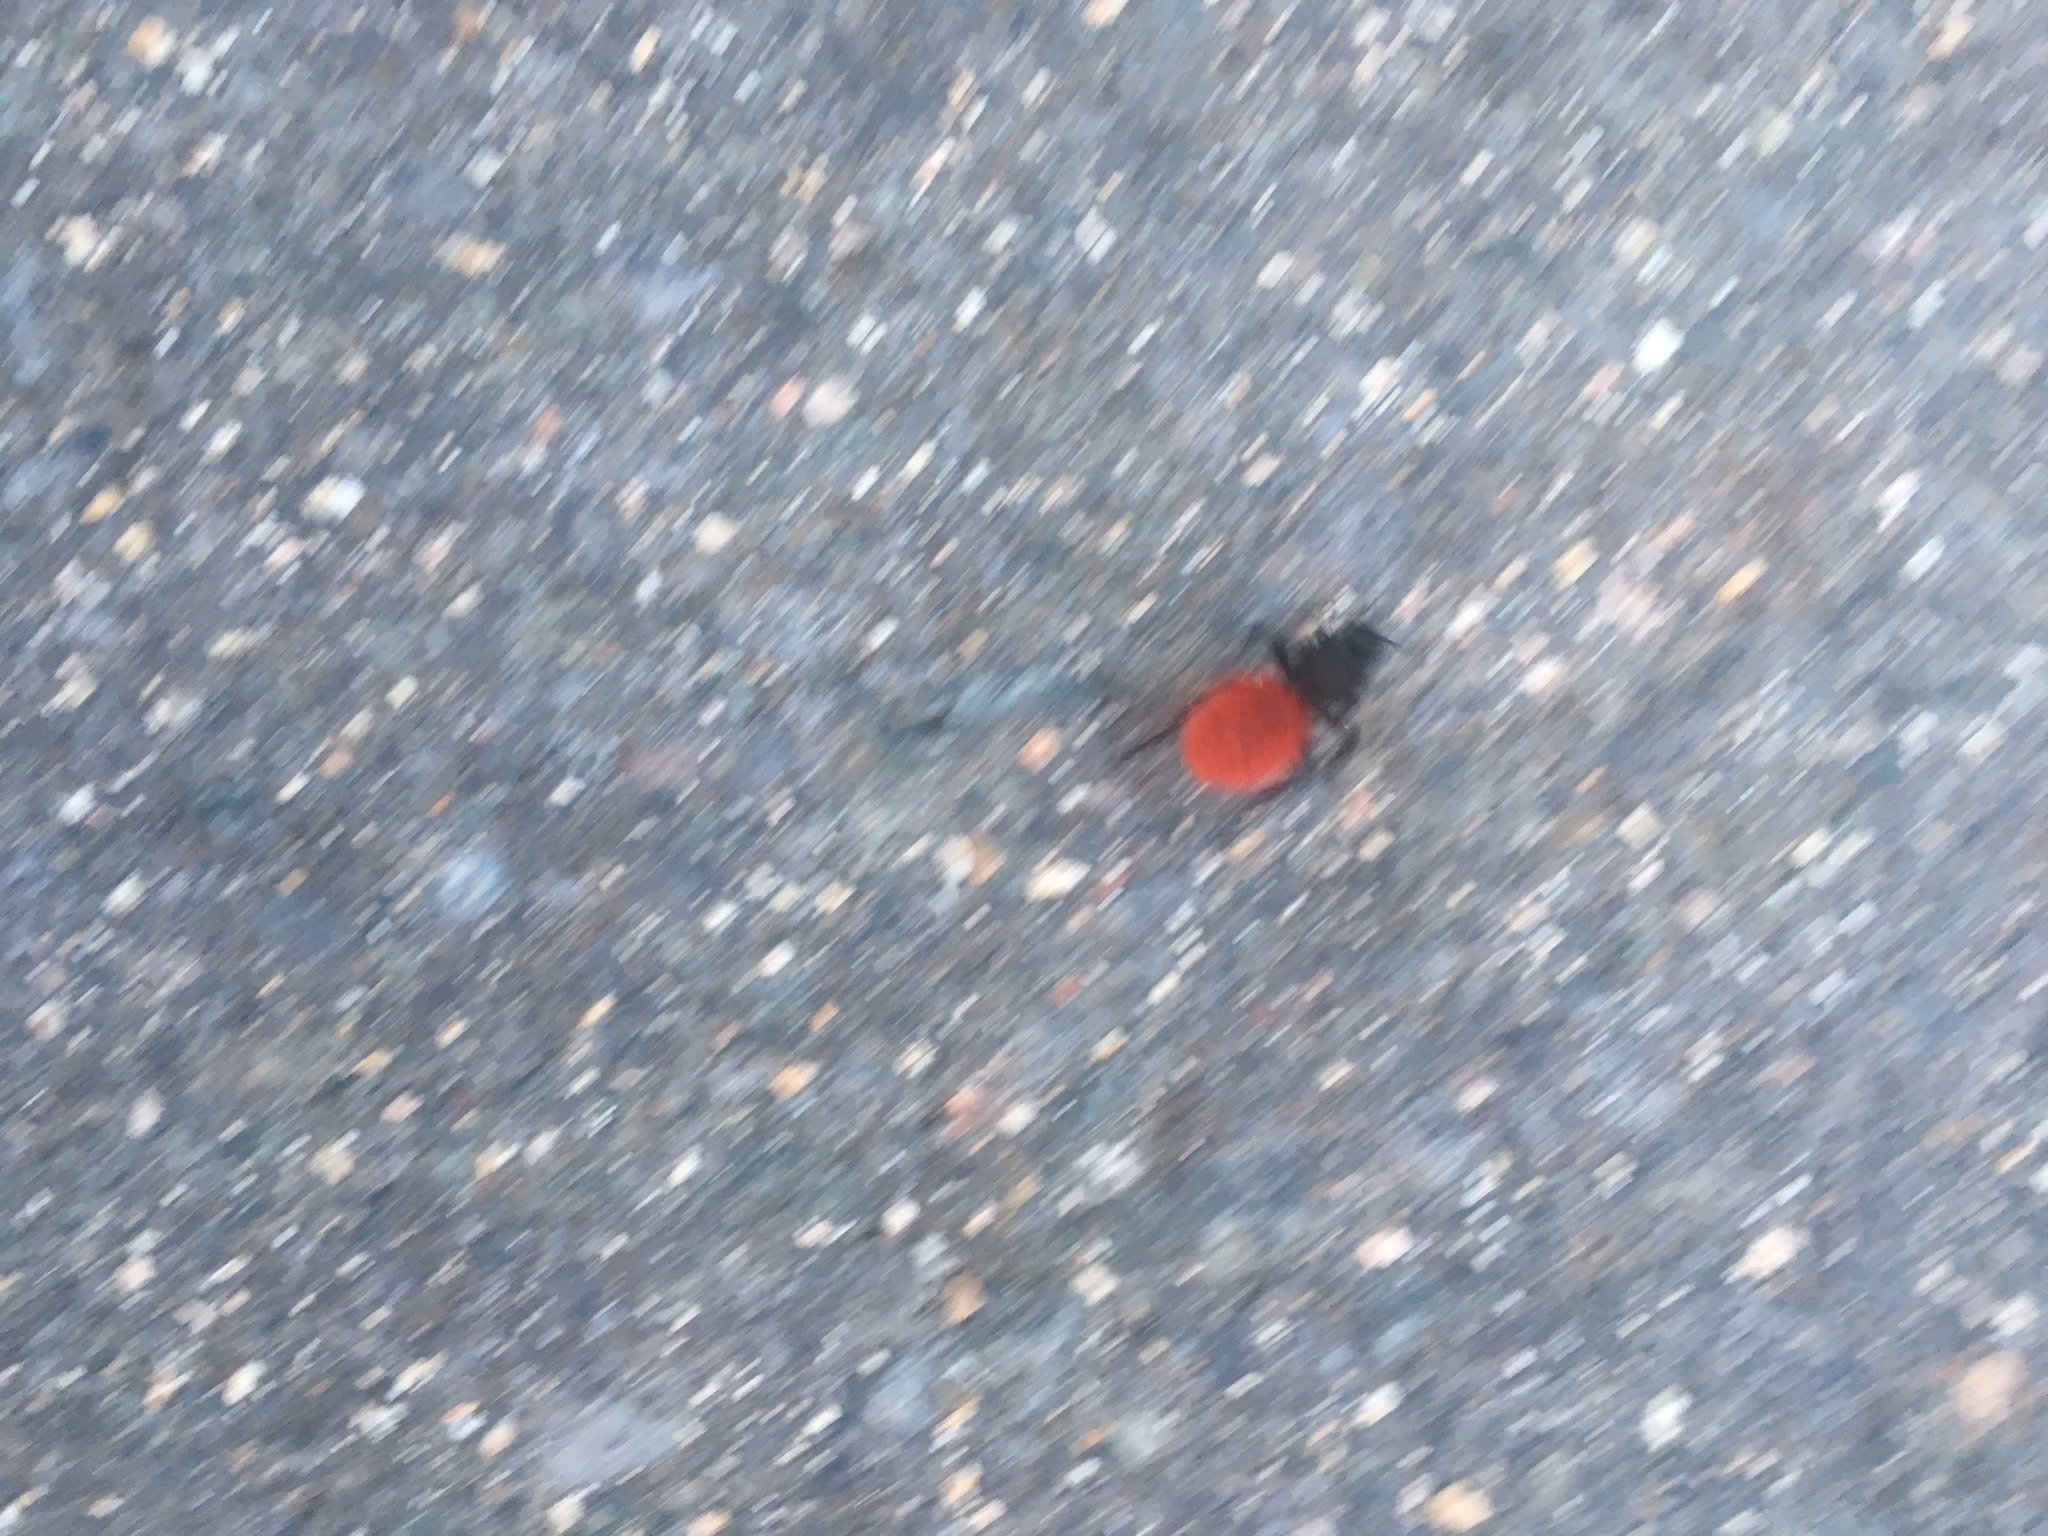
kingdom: Animalia
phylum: Arthropoda
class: Insecta
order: Hymenoptera
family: Mutillidae
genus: Dasymutilla
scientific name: Dasymutilla magnifica
